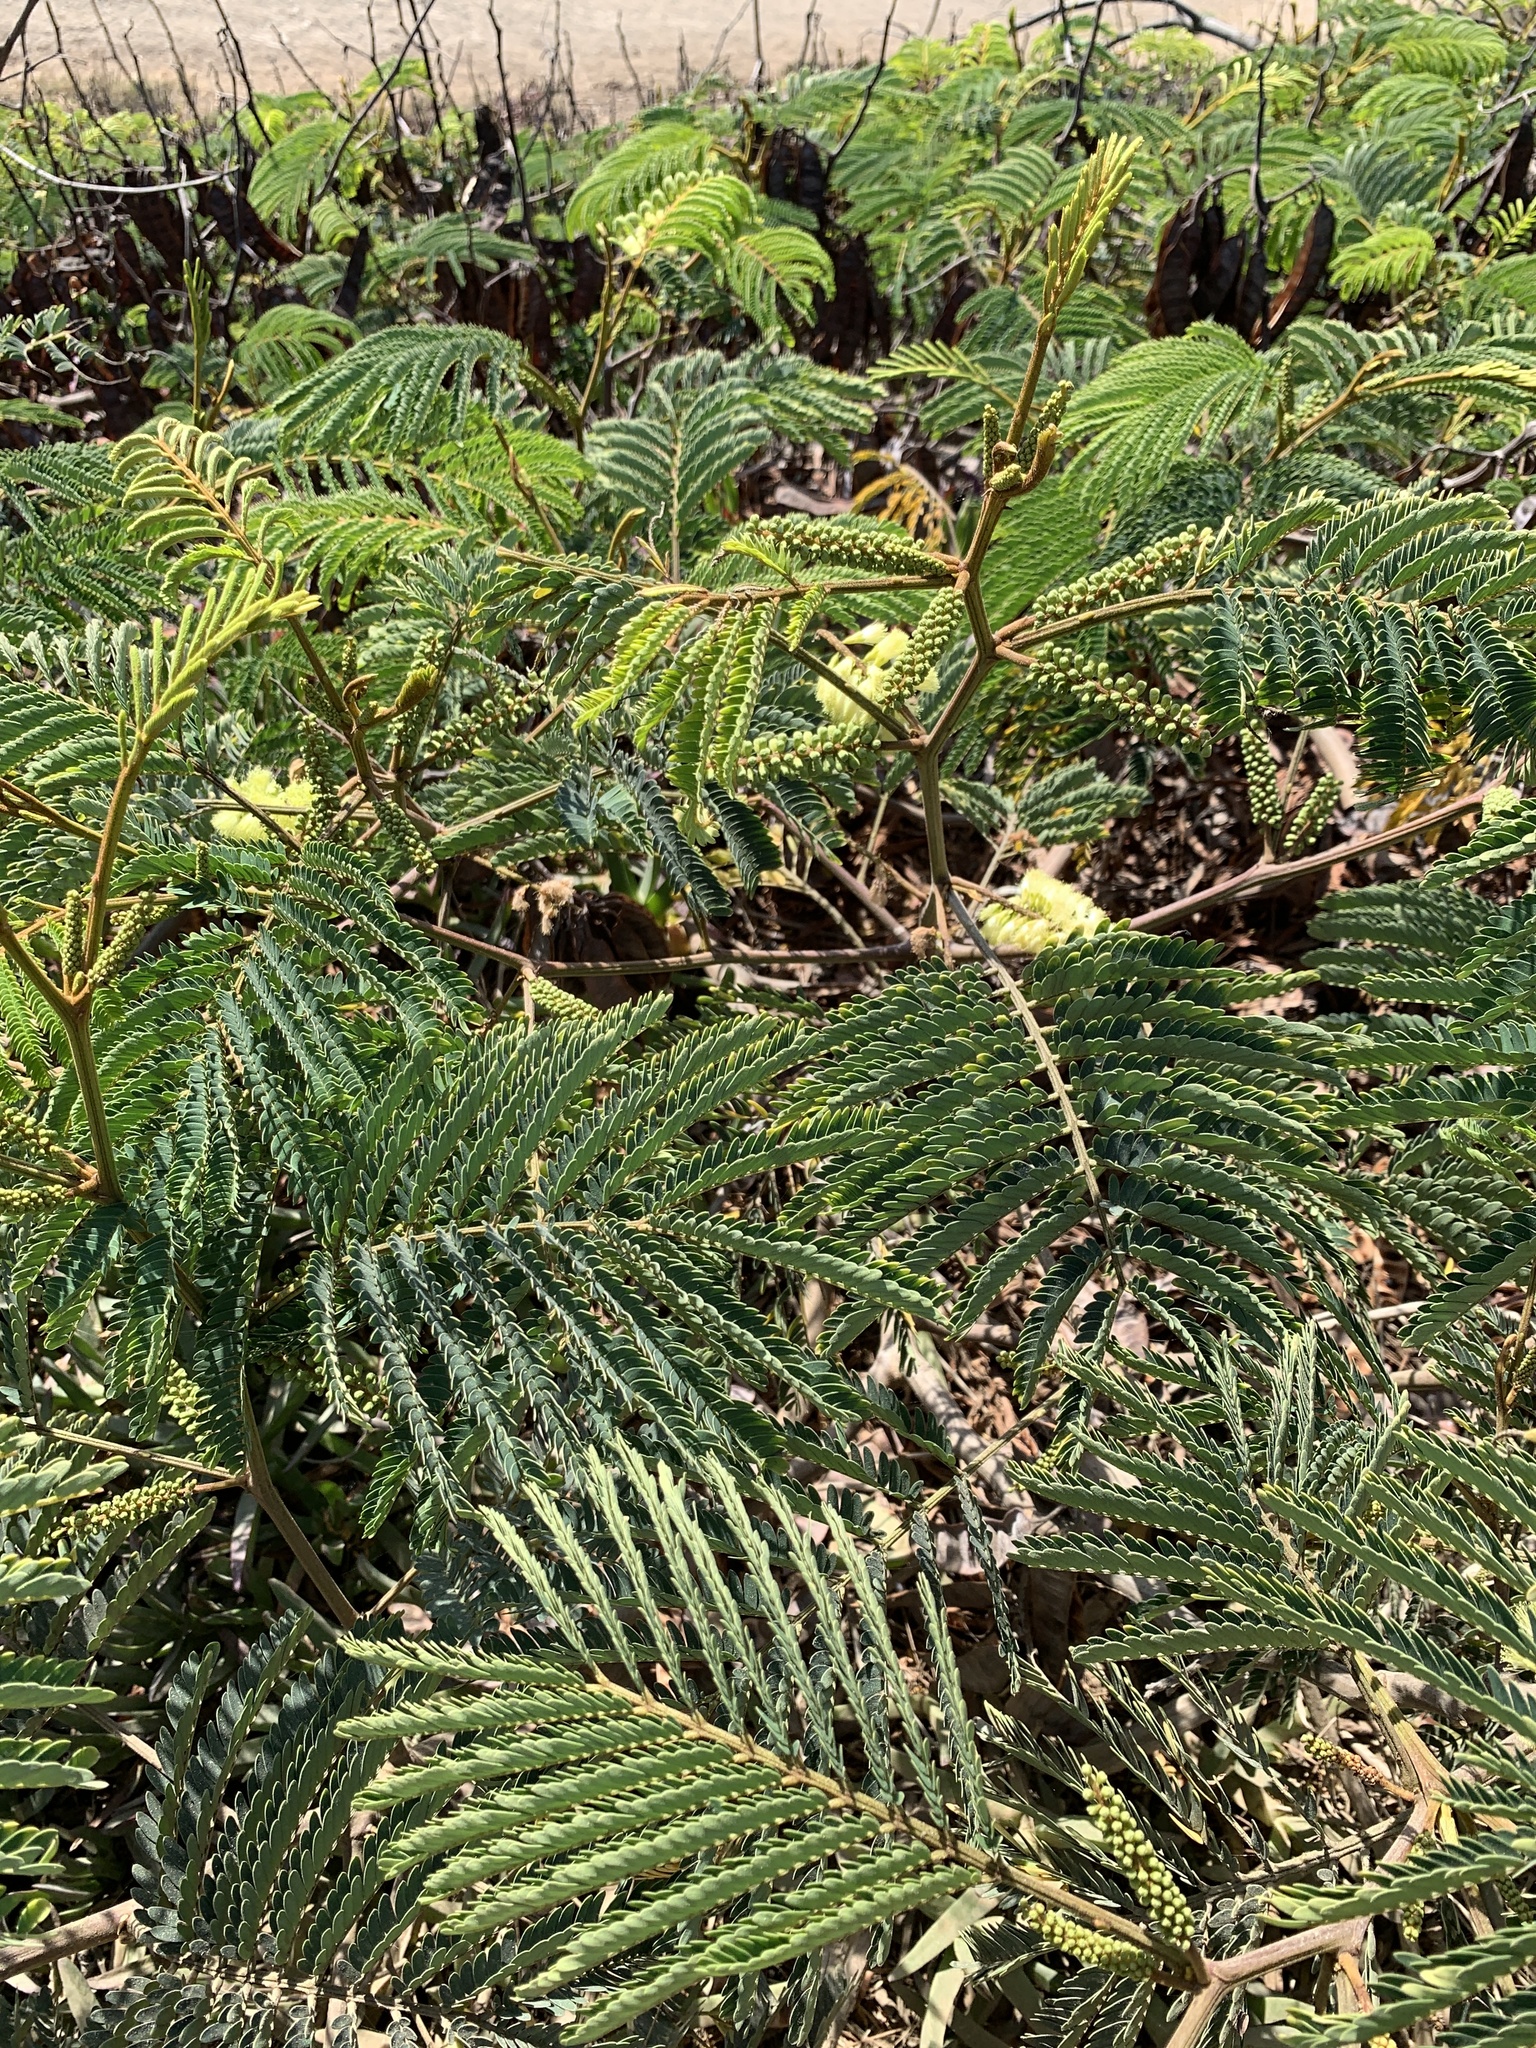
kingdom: Plantae
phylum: Tracheophyta
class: Magnoliopsida
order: Fabales
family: Fabaceae
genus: Paraserianthes
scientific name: Paraserianthes lophantha
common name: Plume albizia
